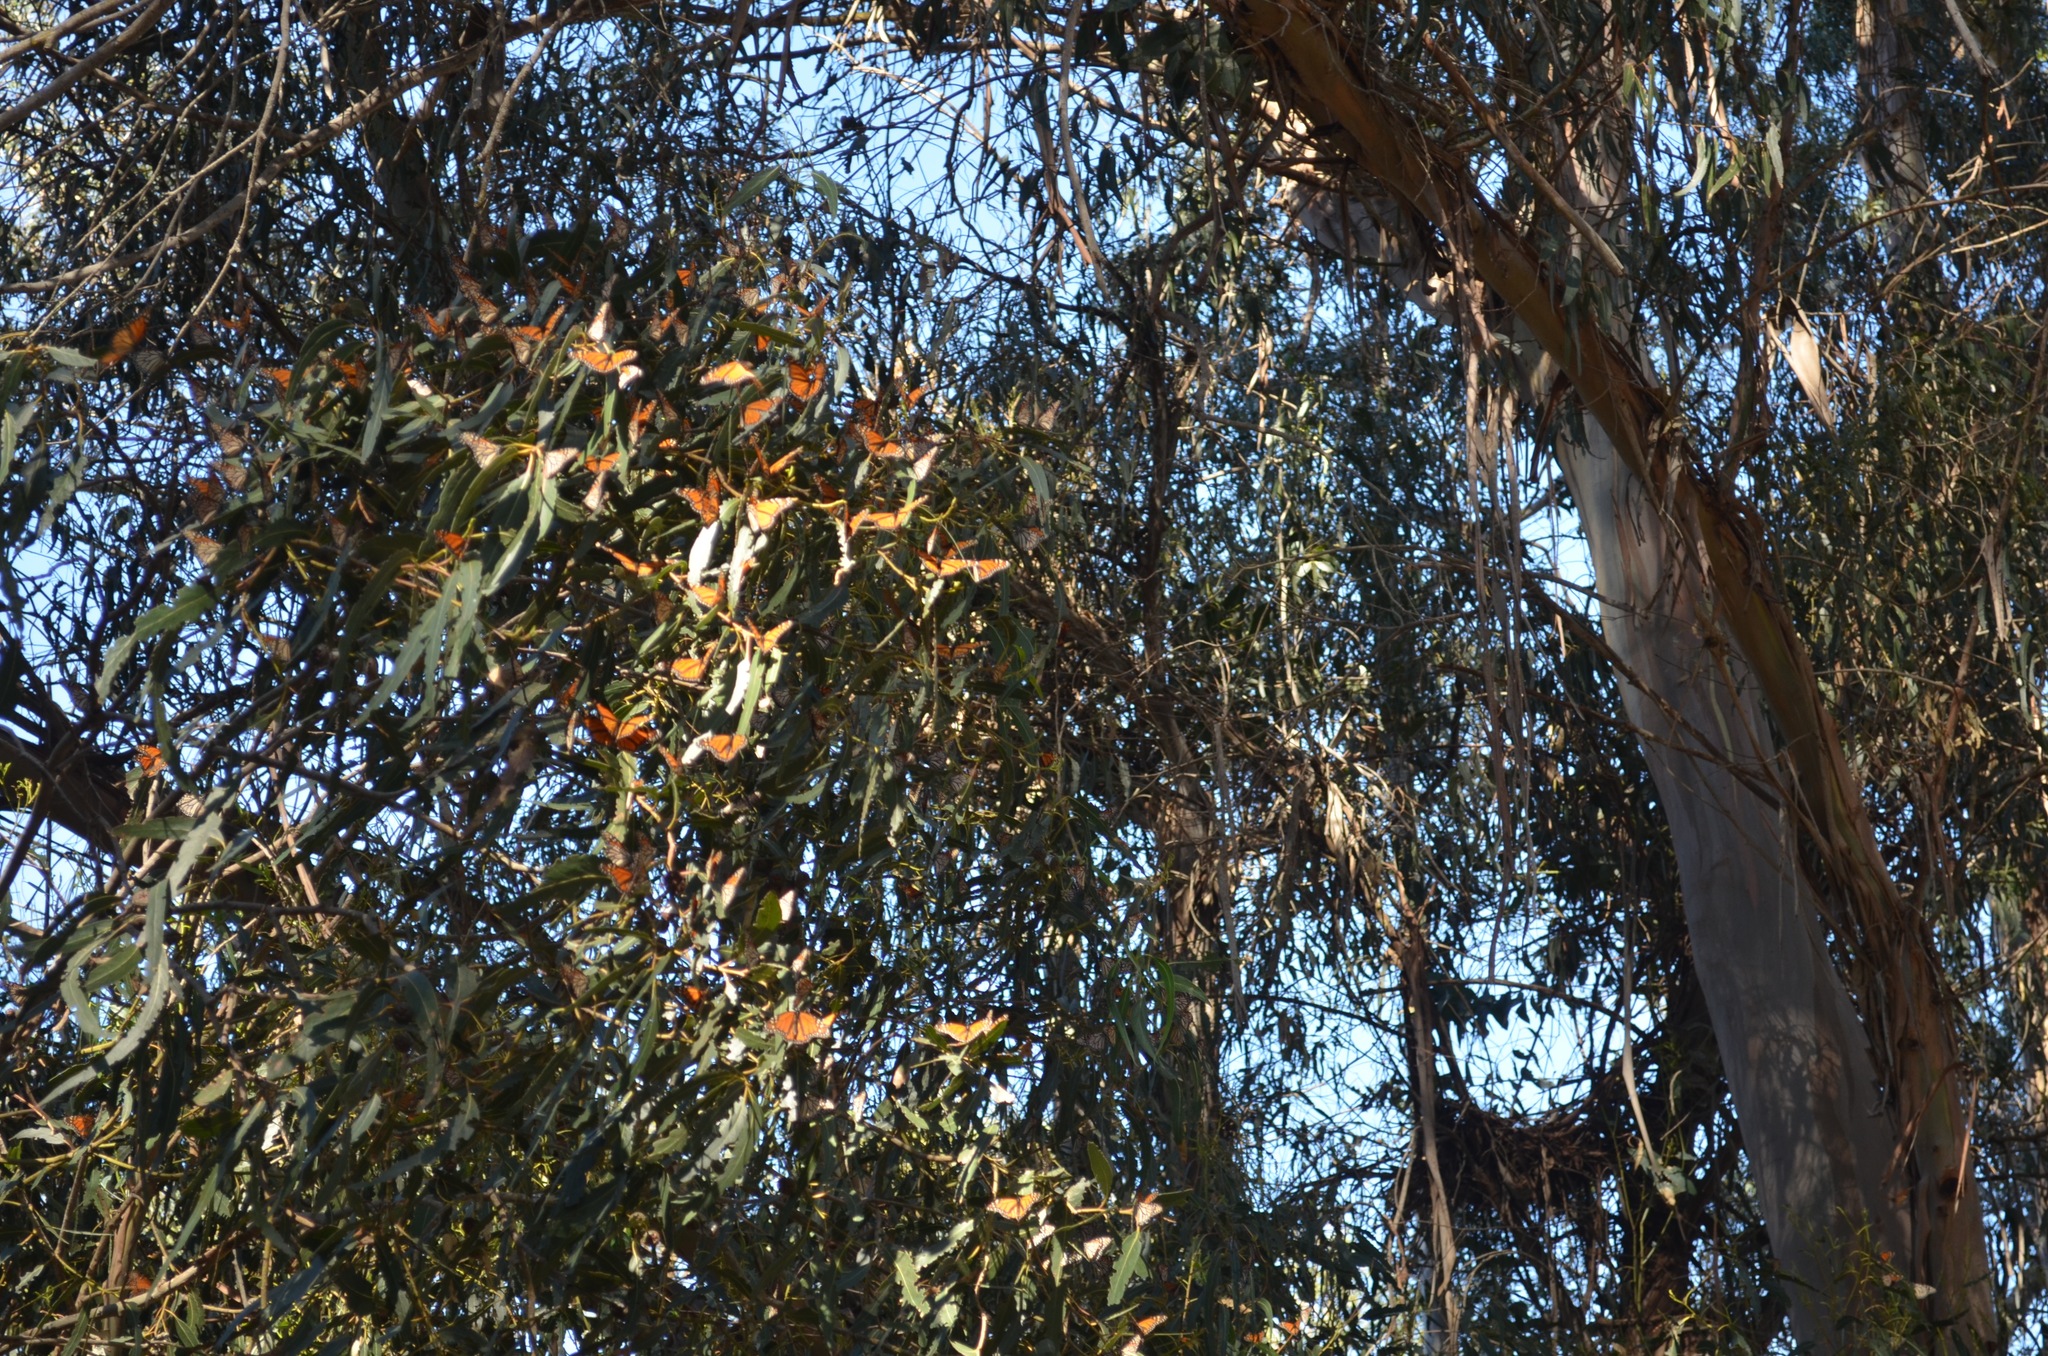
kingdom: Animalia
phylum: Arthropoda
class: Insecta
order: Lepidoptera
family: Nymphalidae
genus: Danaus
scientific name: Danaus plexippus
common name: Monarch
